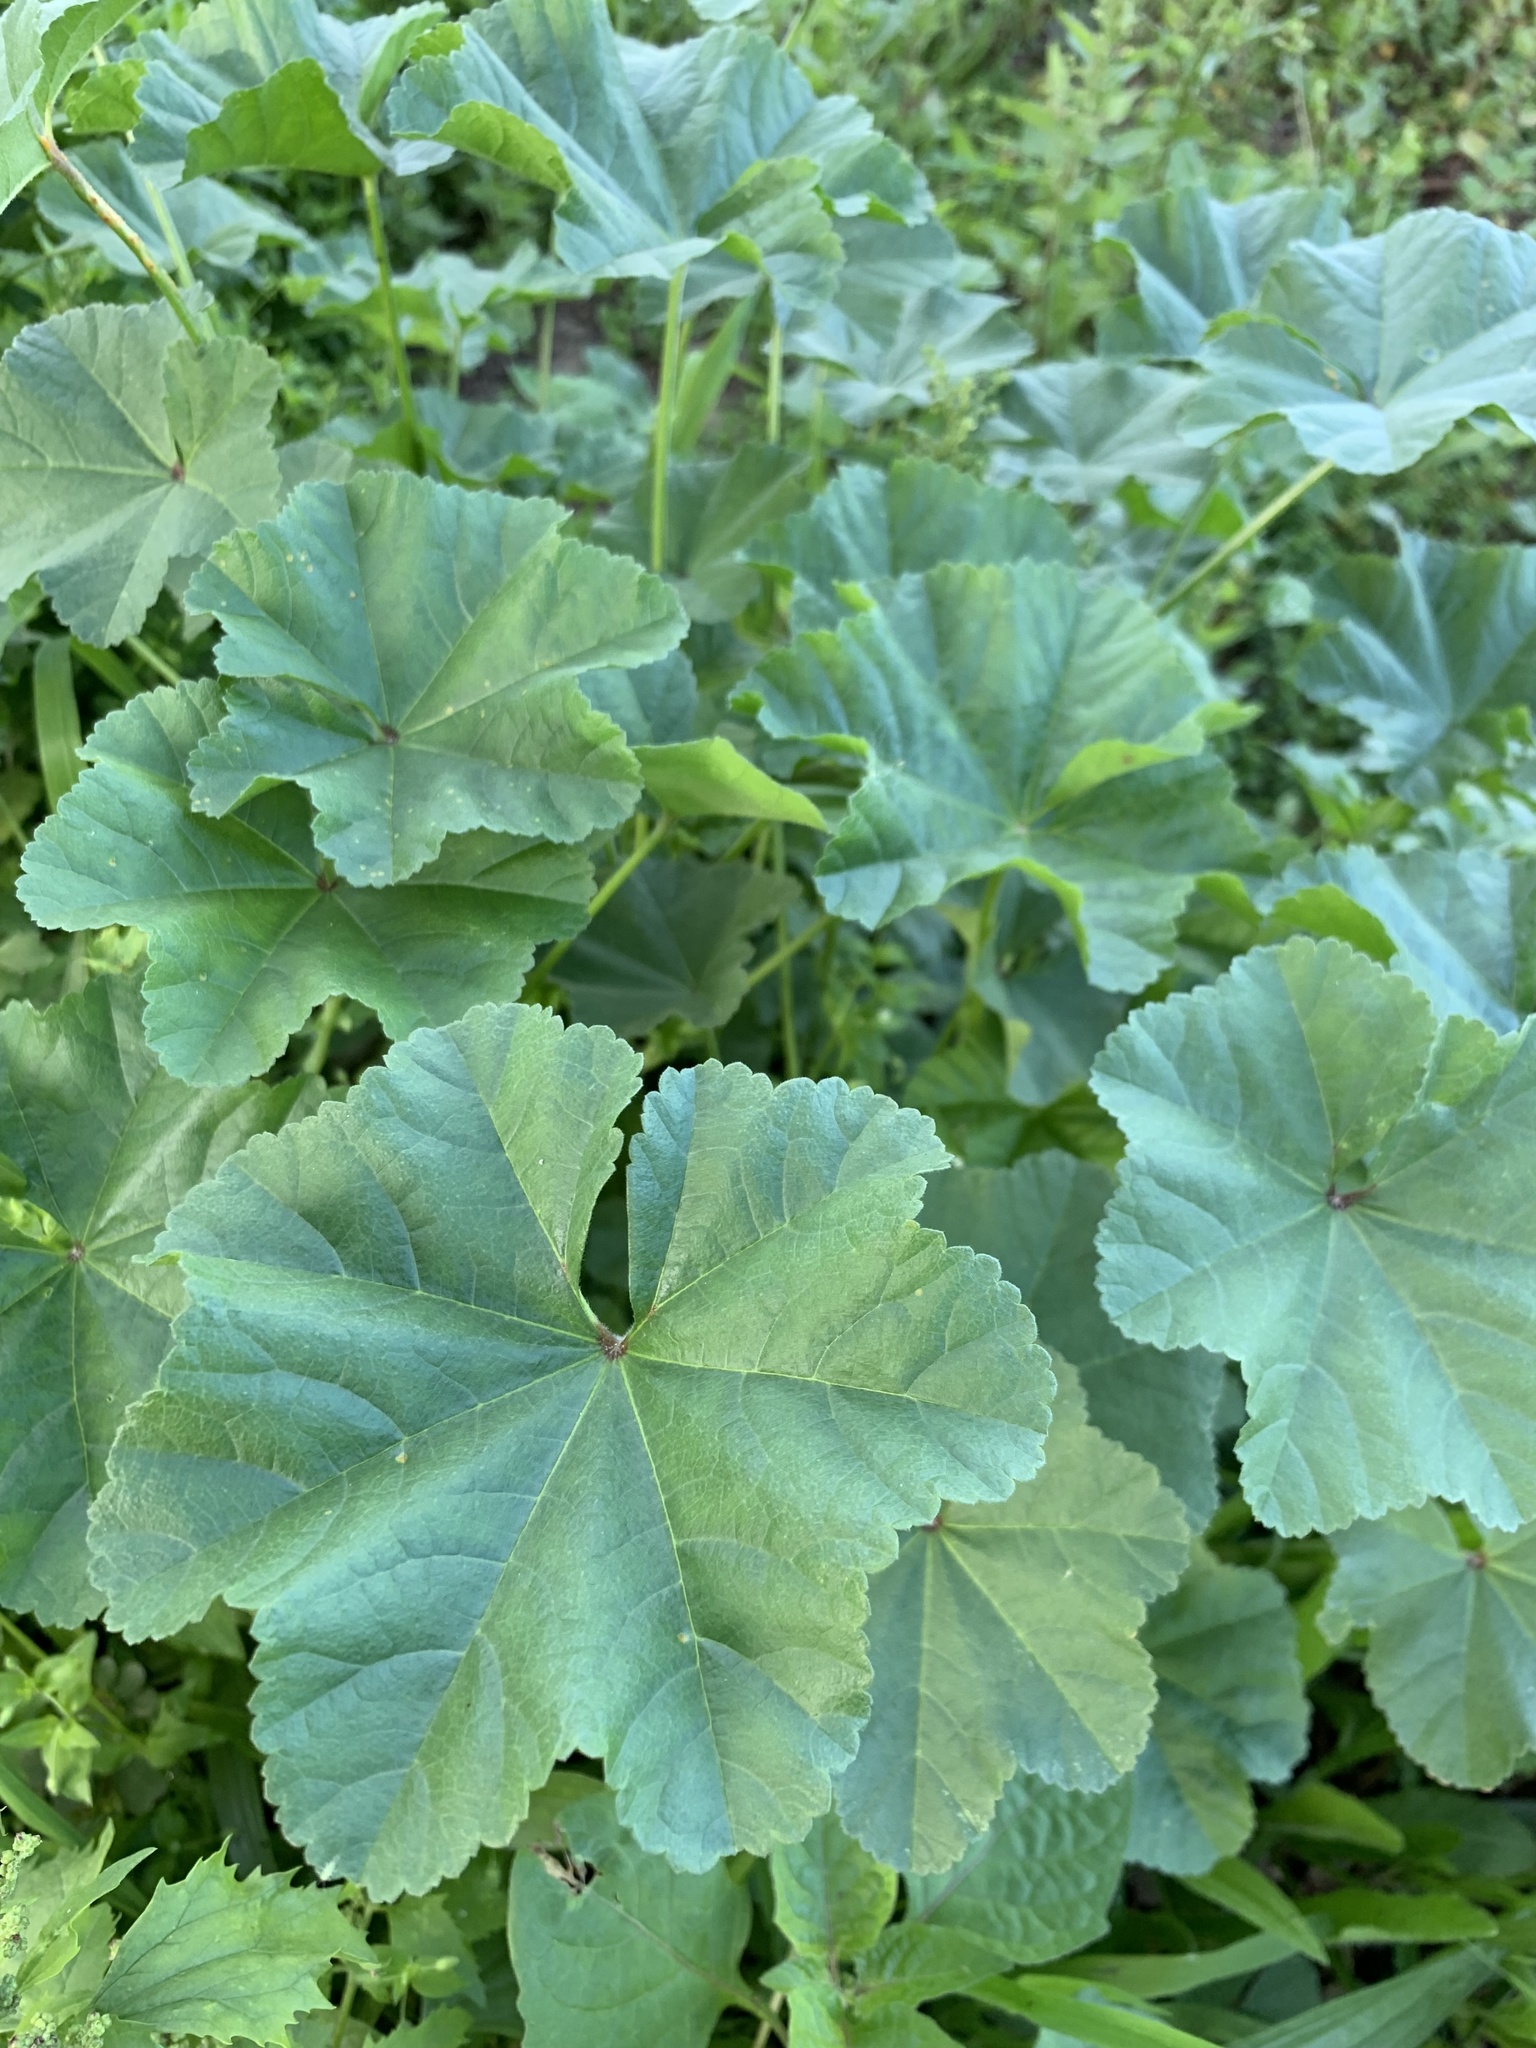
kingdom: Plantae
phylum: Tracheophyta
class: Magnoliopsida
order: Malvales
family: Malvaceae
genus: Malva
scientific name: Malva parviflora
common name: Least mallow
